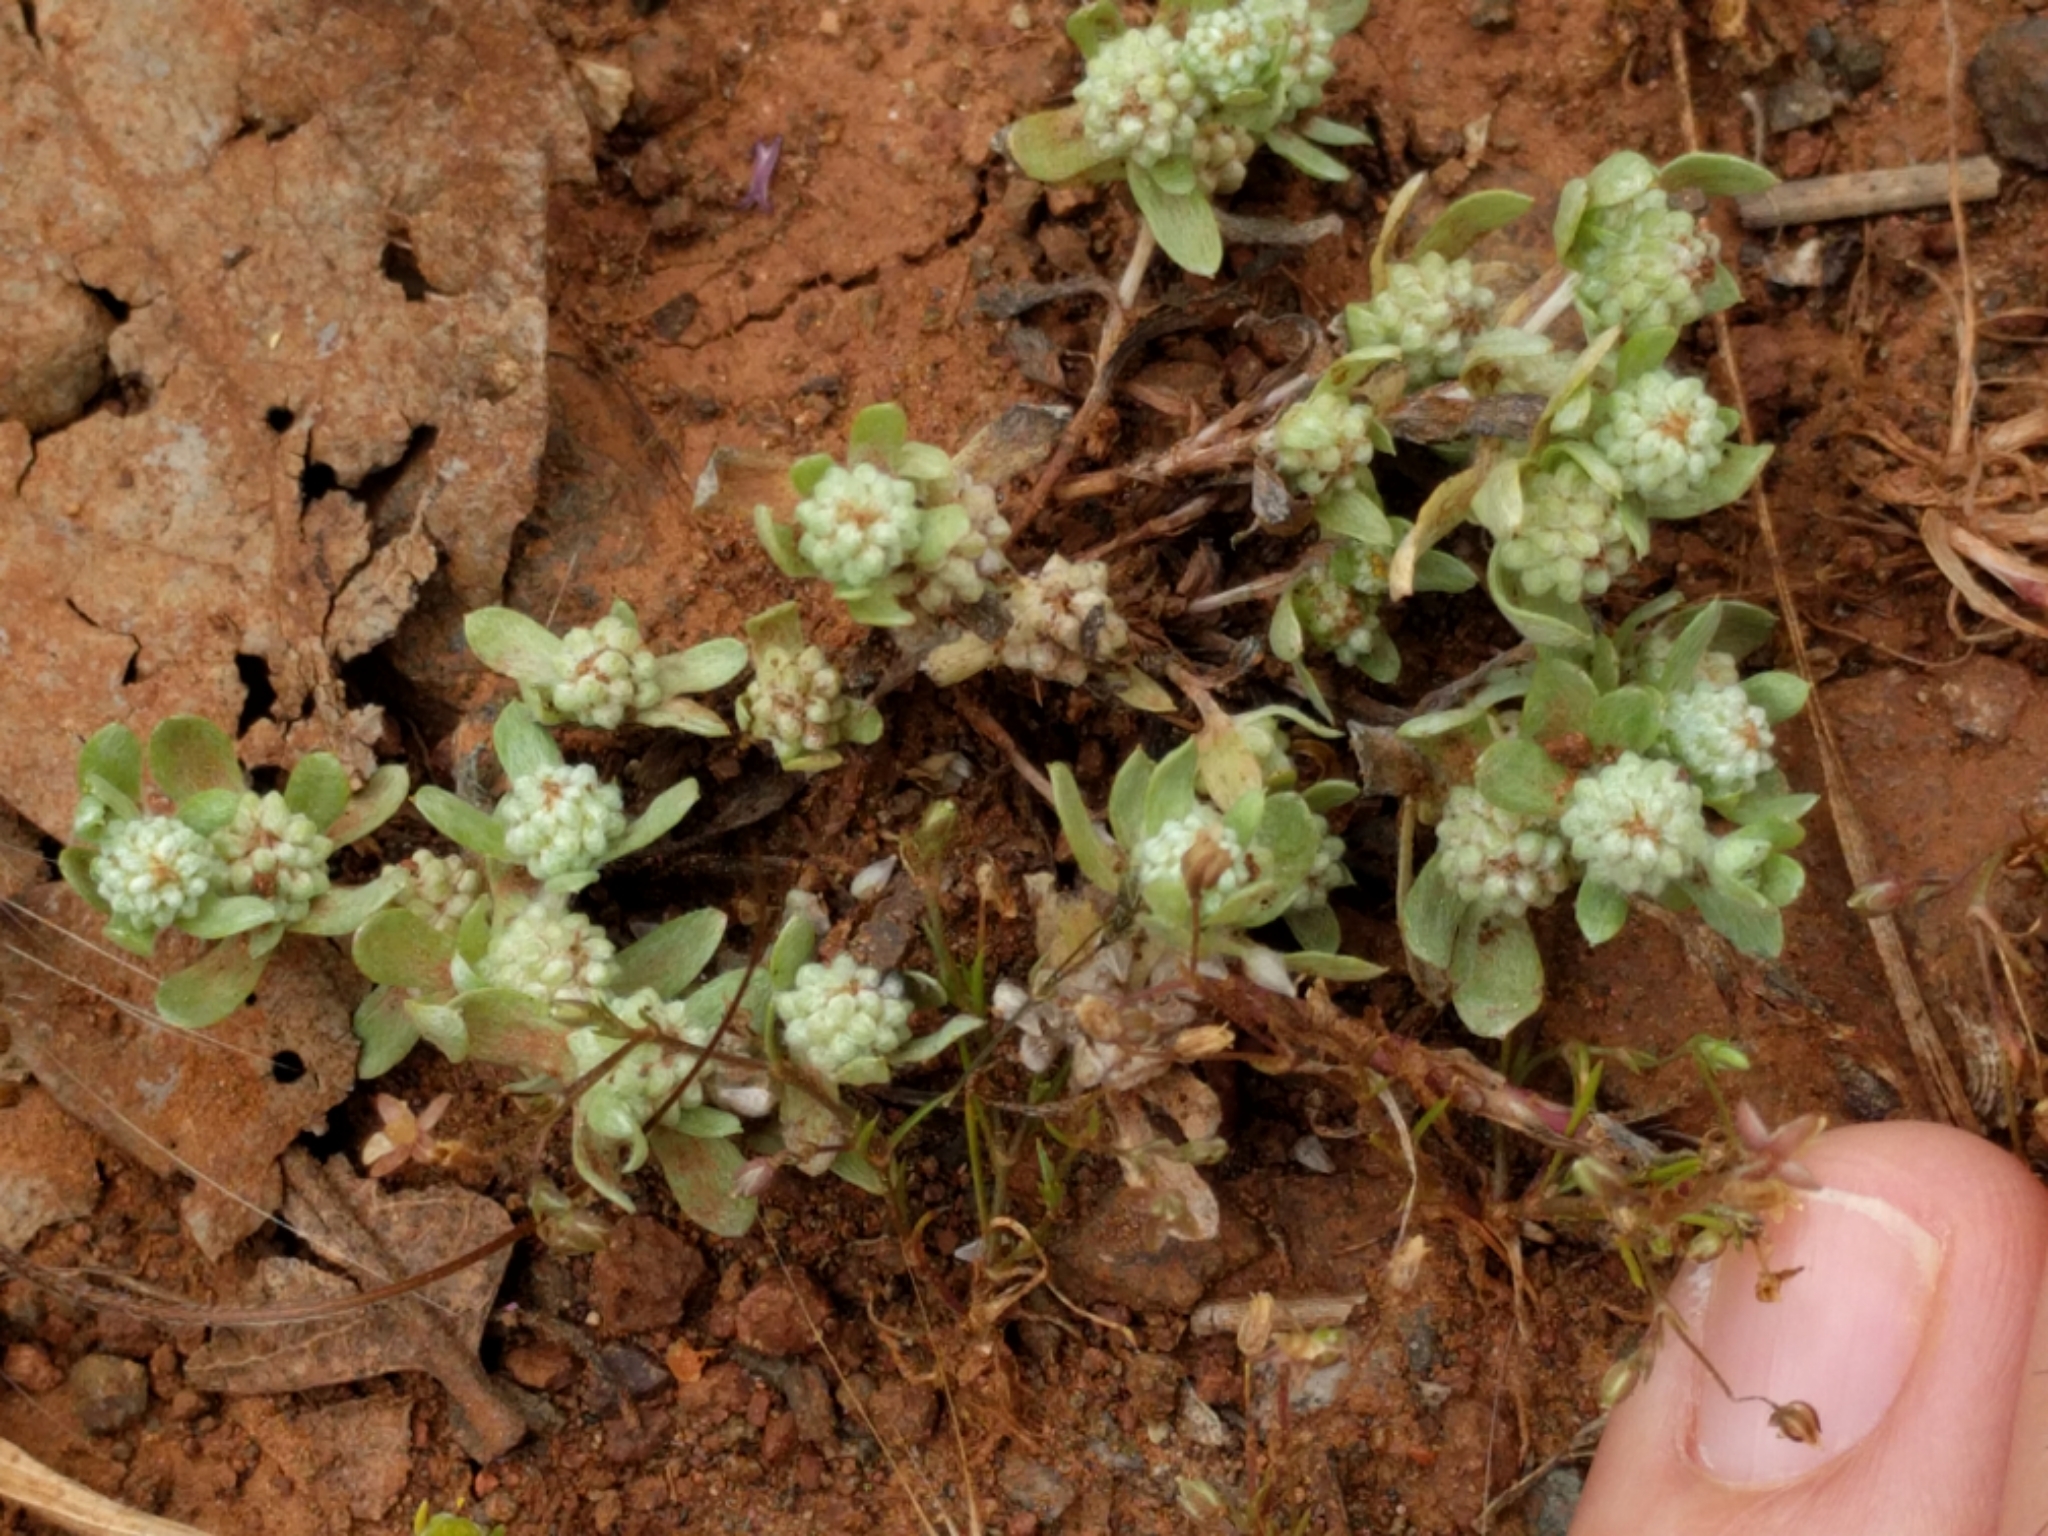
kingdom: Plantae
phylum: Tracheophyta
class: Magnoliopsida
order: Asterales
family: Asteraceae
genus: Psilocarphus
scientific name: Psilocarphus tenellus
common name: Slender woolly-marbles
